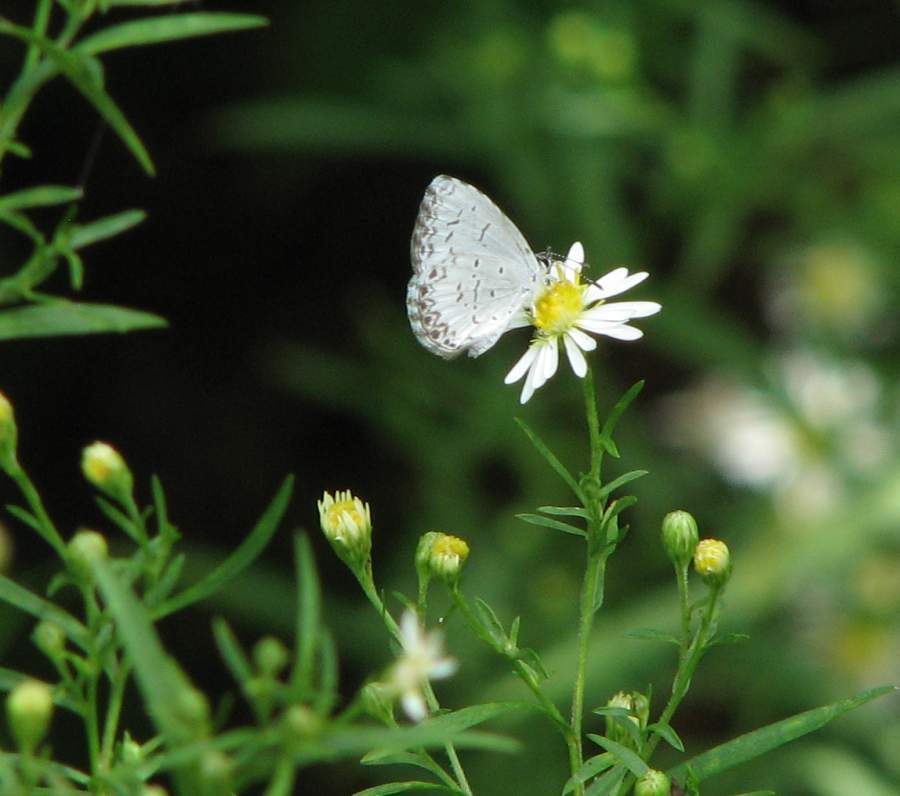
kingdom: Animalia
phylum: Arthropoda
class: Insecta
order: Lepidoptera
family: Lycaenidae
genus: Celastrina
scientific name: Celastrina lucia
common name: Lucia azure
